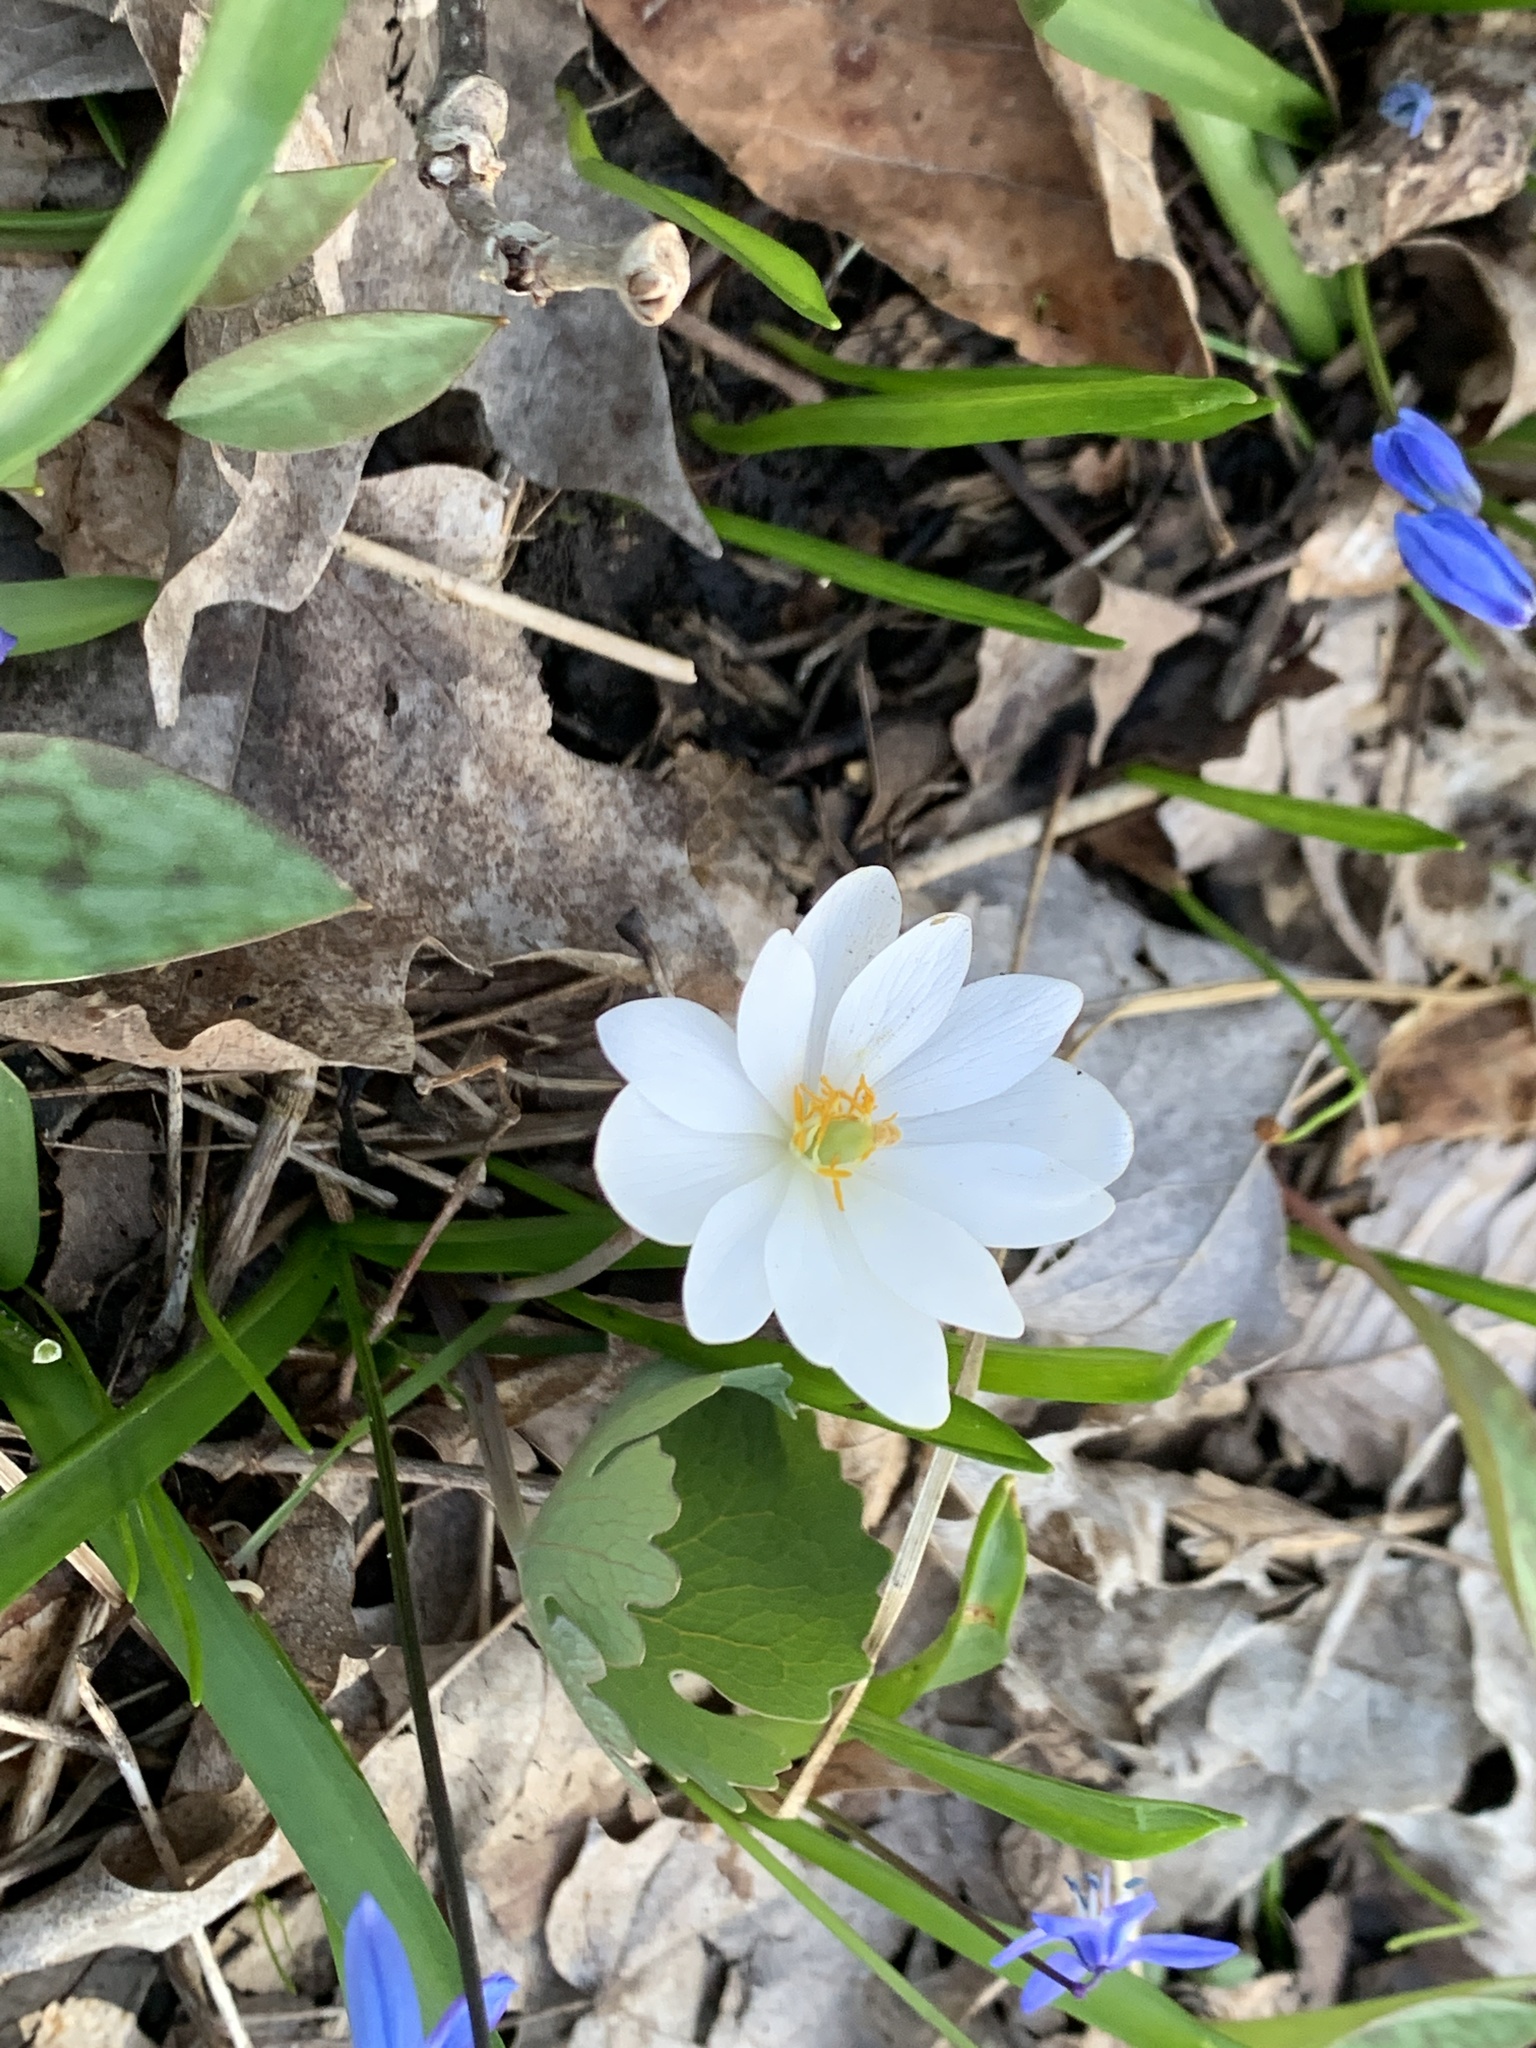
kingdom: Plantae
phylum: Tracheophyta
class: Magnoliopsida
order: Ranunculales
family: Papaveraceae
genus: Sanguinaria
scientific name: Sanguinaria canadensis
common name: Bloodroot
